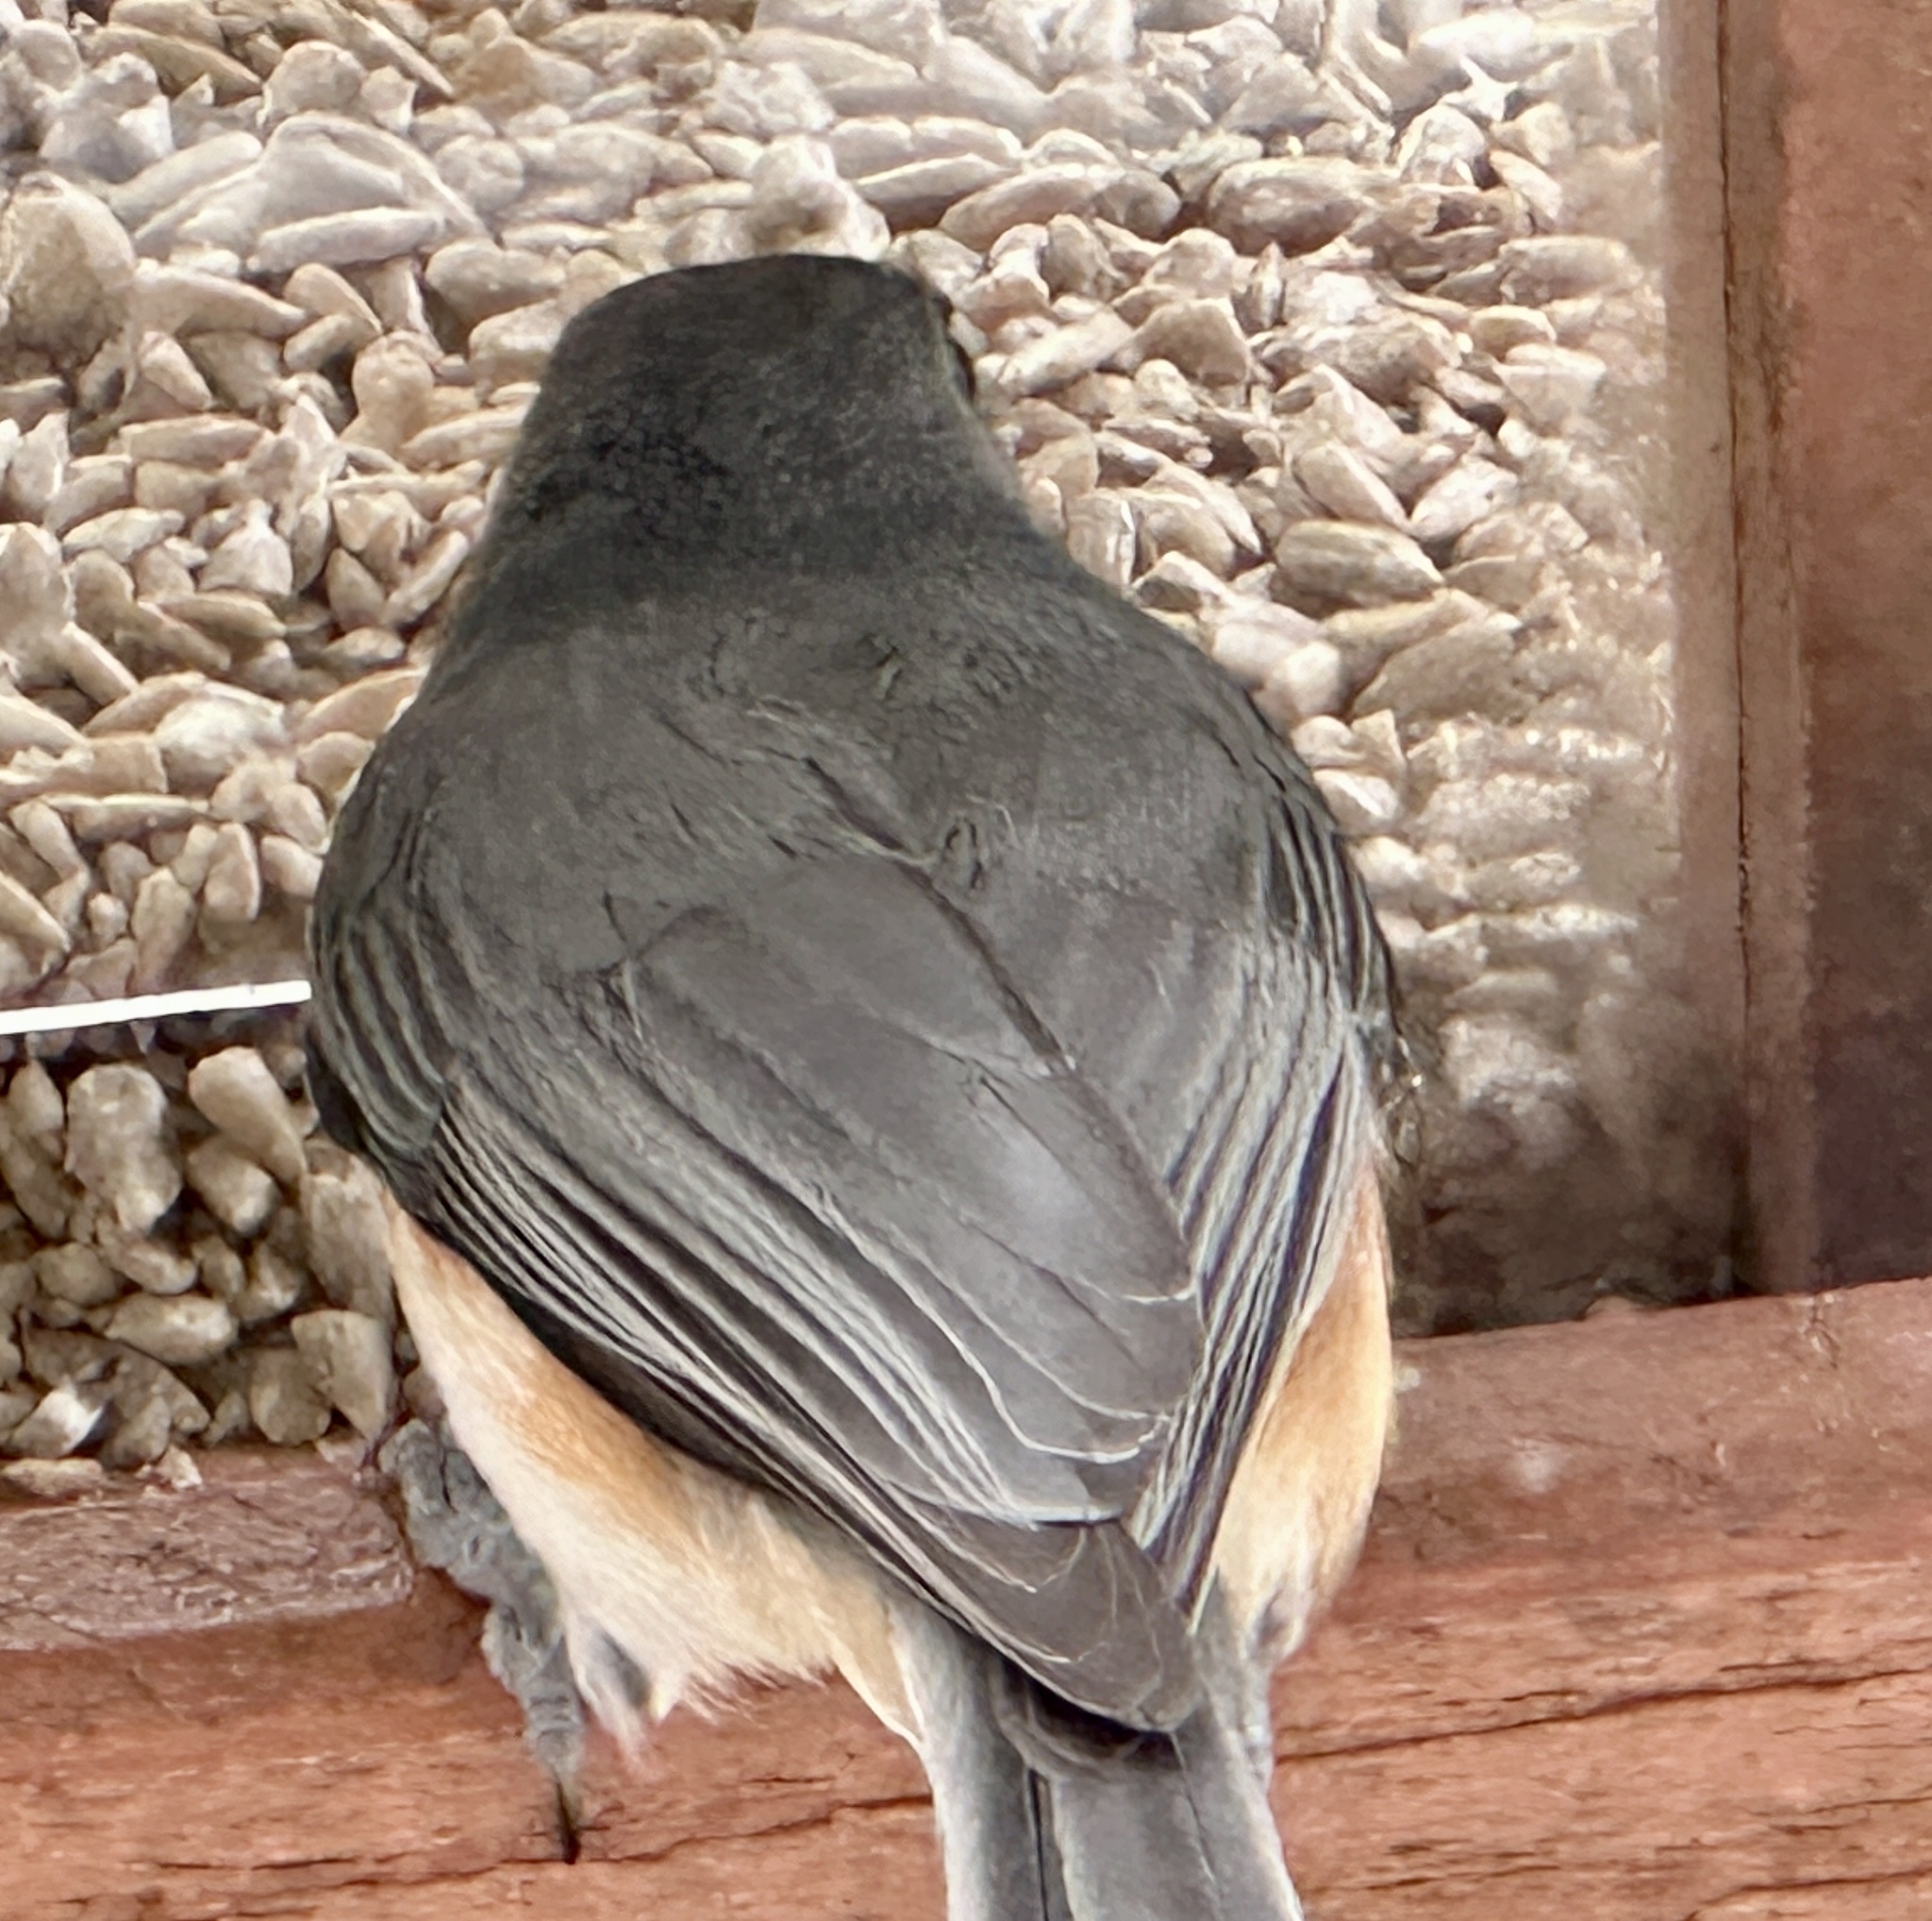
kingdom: Animalia
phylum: Chordata
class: Aves
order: Passeriformes
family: Paridae
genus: Baeolophus
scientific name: Baeolophus bicolor
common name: Tufted titmouse
